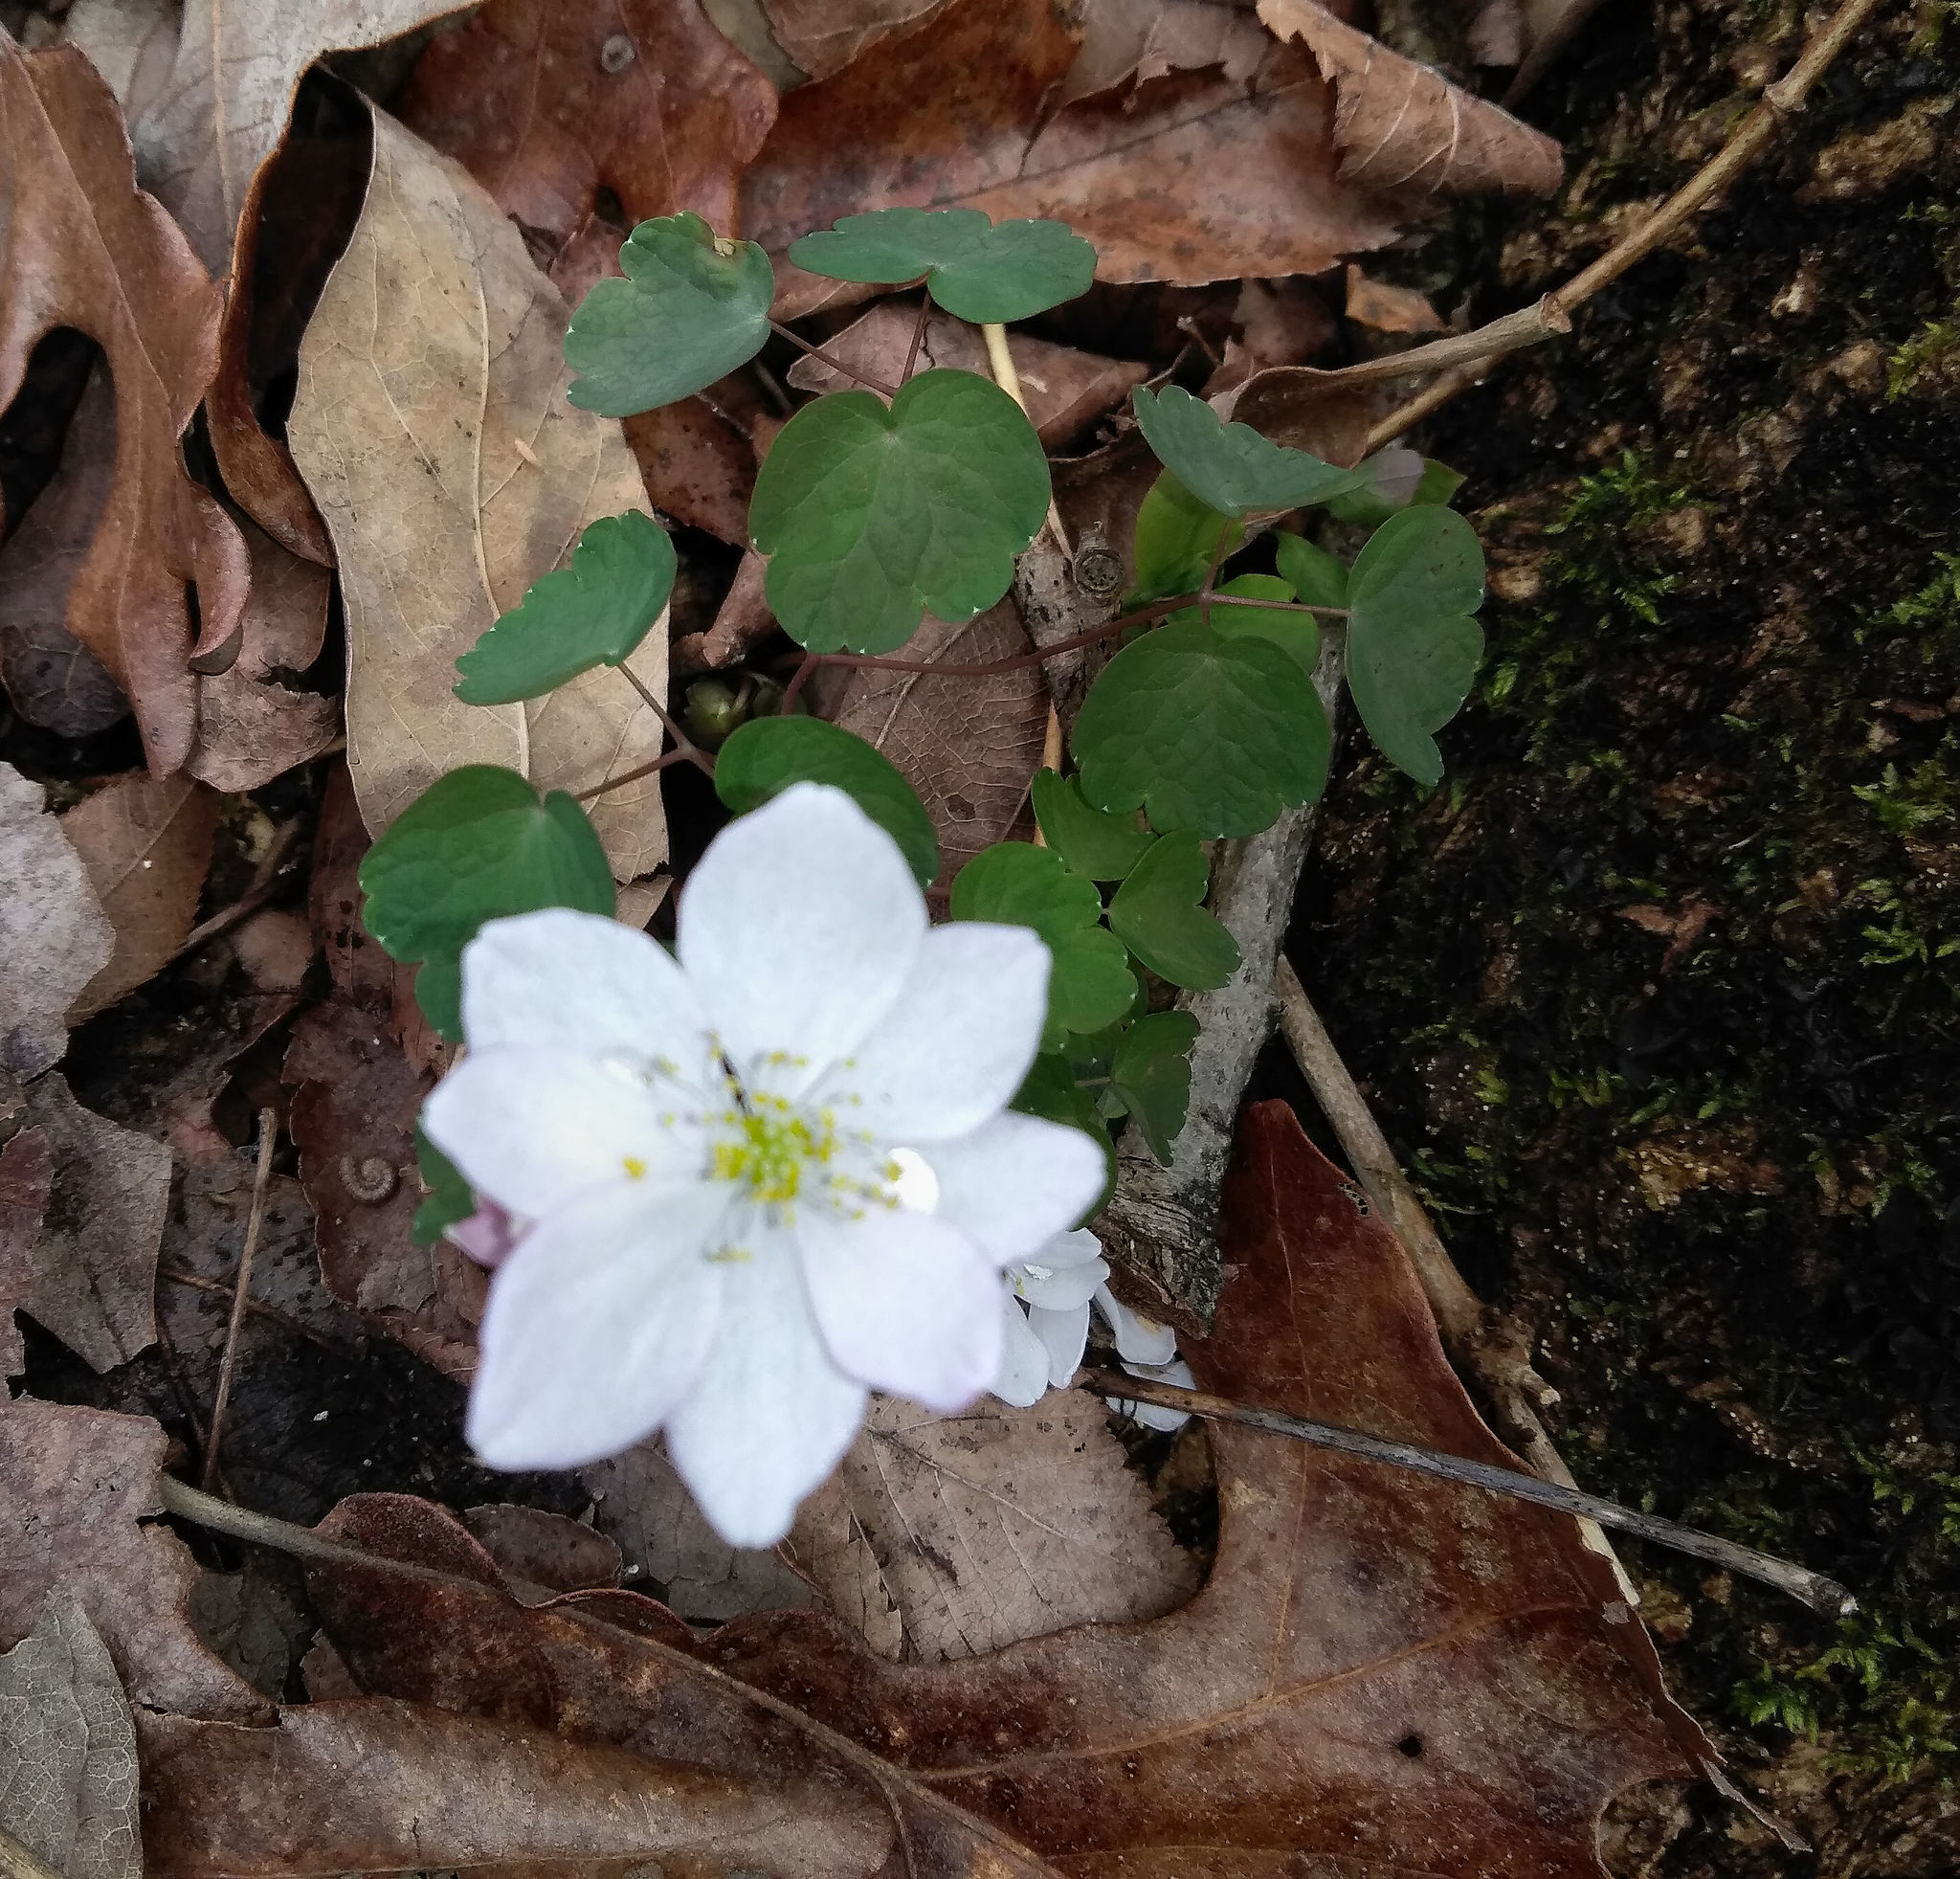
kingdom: Plantae
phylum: Tracheophyta
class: Magnoliopsida
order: Ranunculales
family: Ranunculaceae
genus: Thalictrum
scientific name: Thalictrum thalictroides
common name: Rue-anemone
